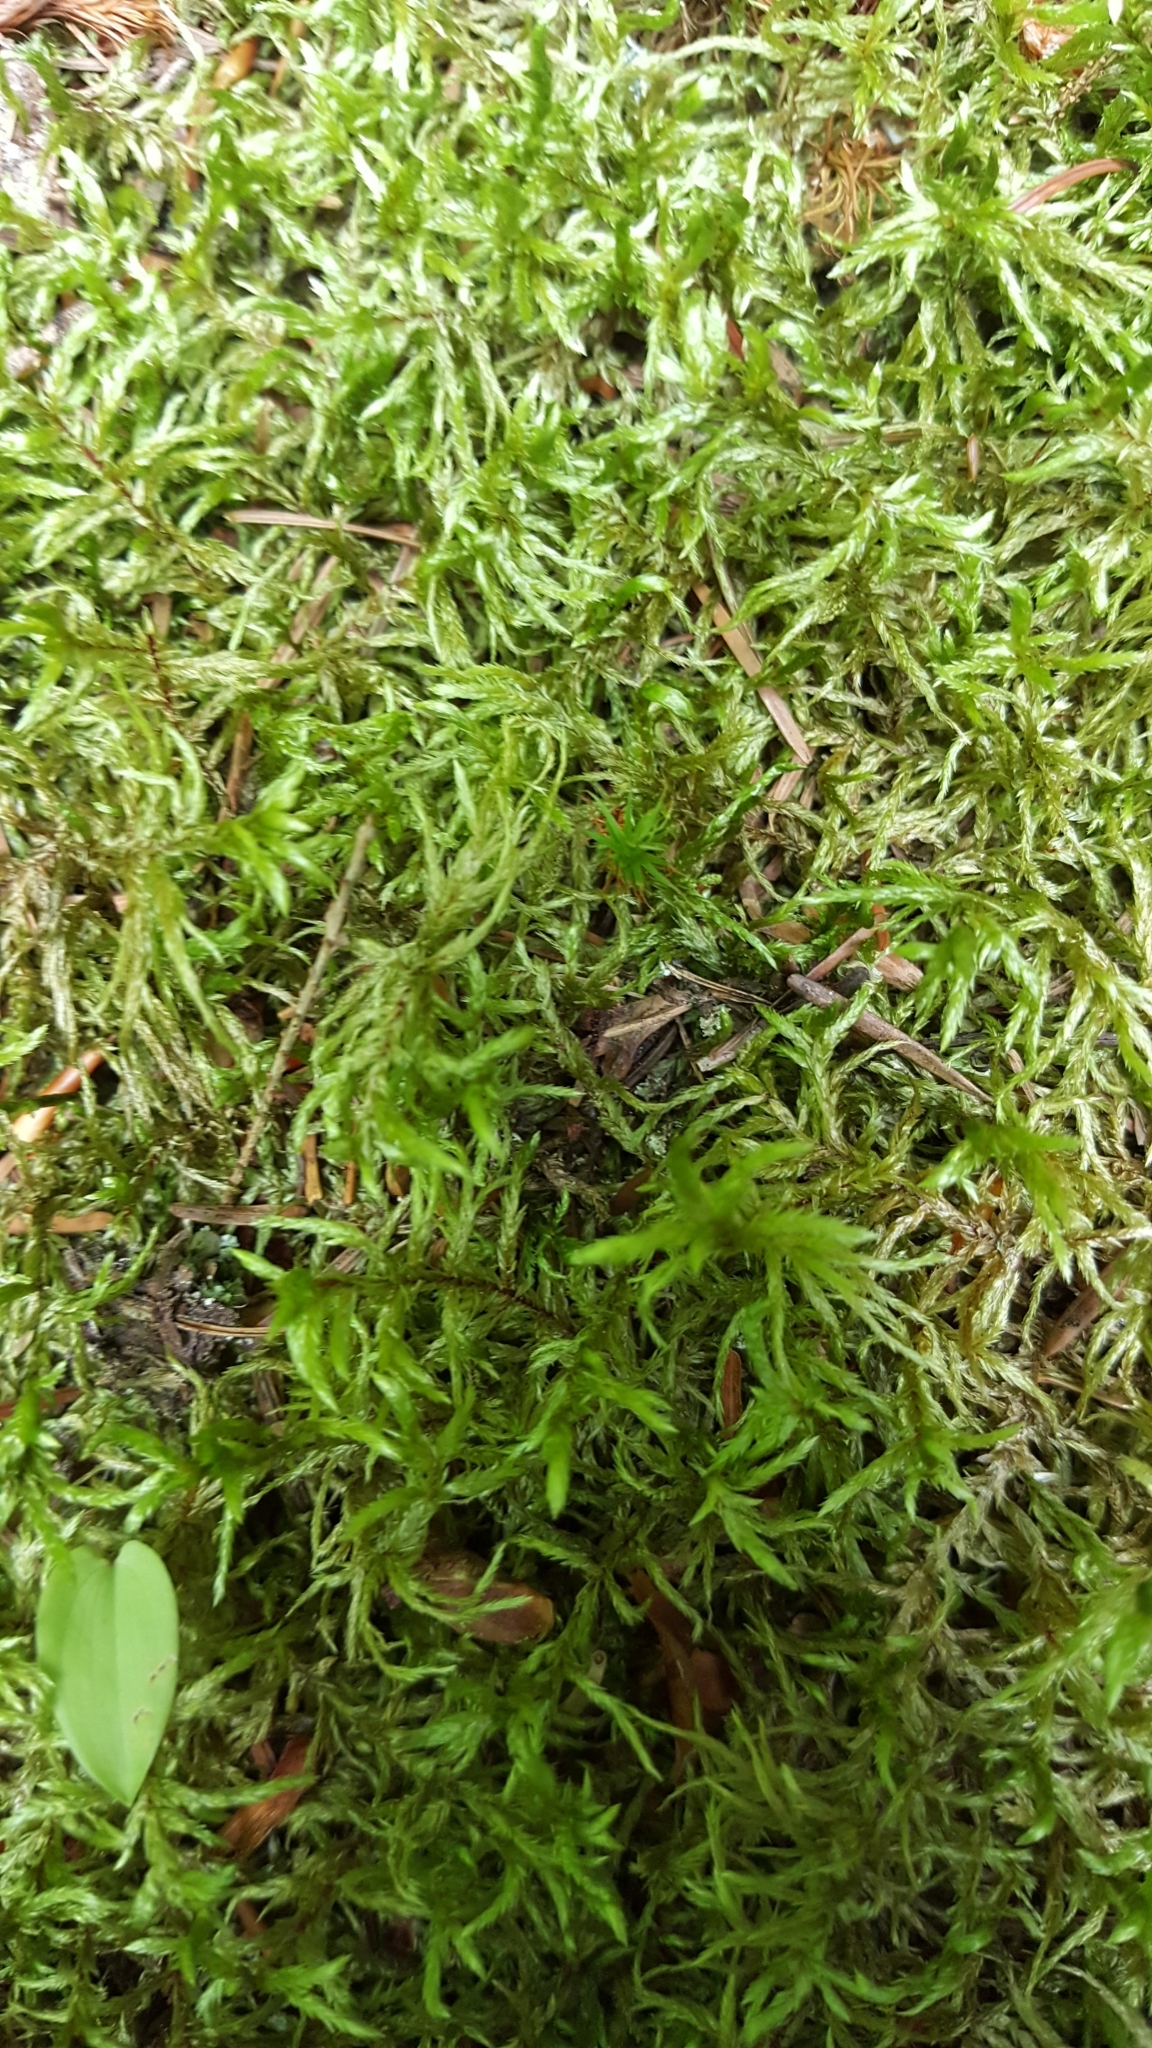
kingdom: Plantae
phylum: Bryophyta
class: Bryopsida
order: Hypnales
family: Hylocomiaceae
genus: Pleurozium
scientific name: Pleurozium schreberi
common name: Red-stemmed feather moss
